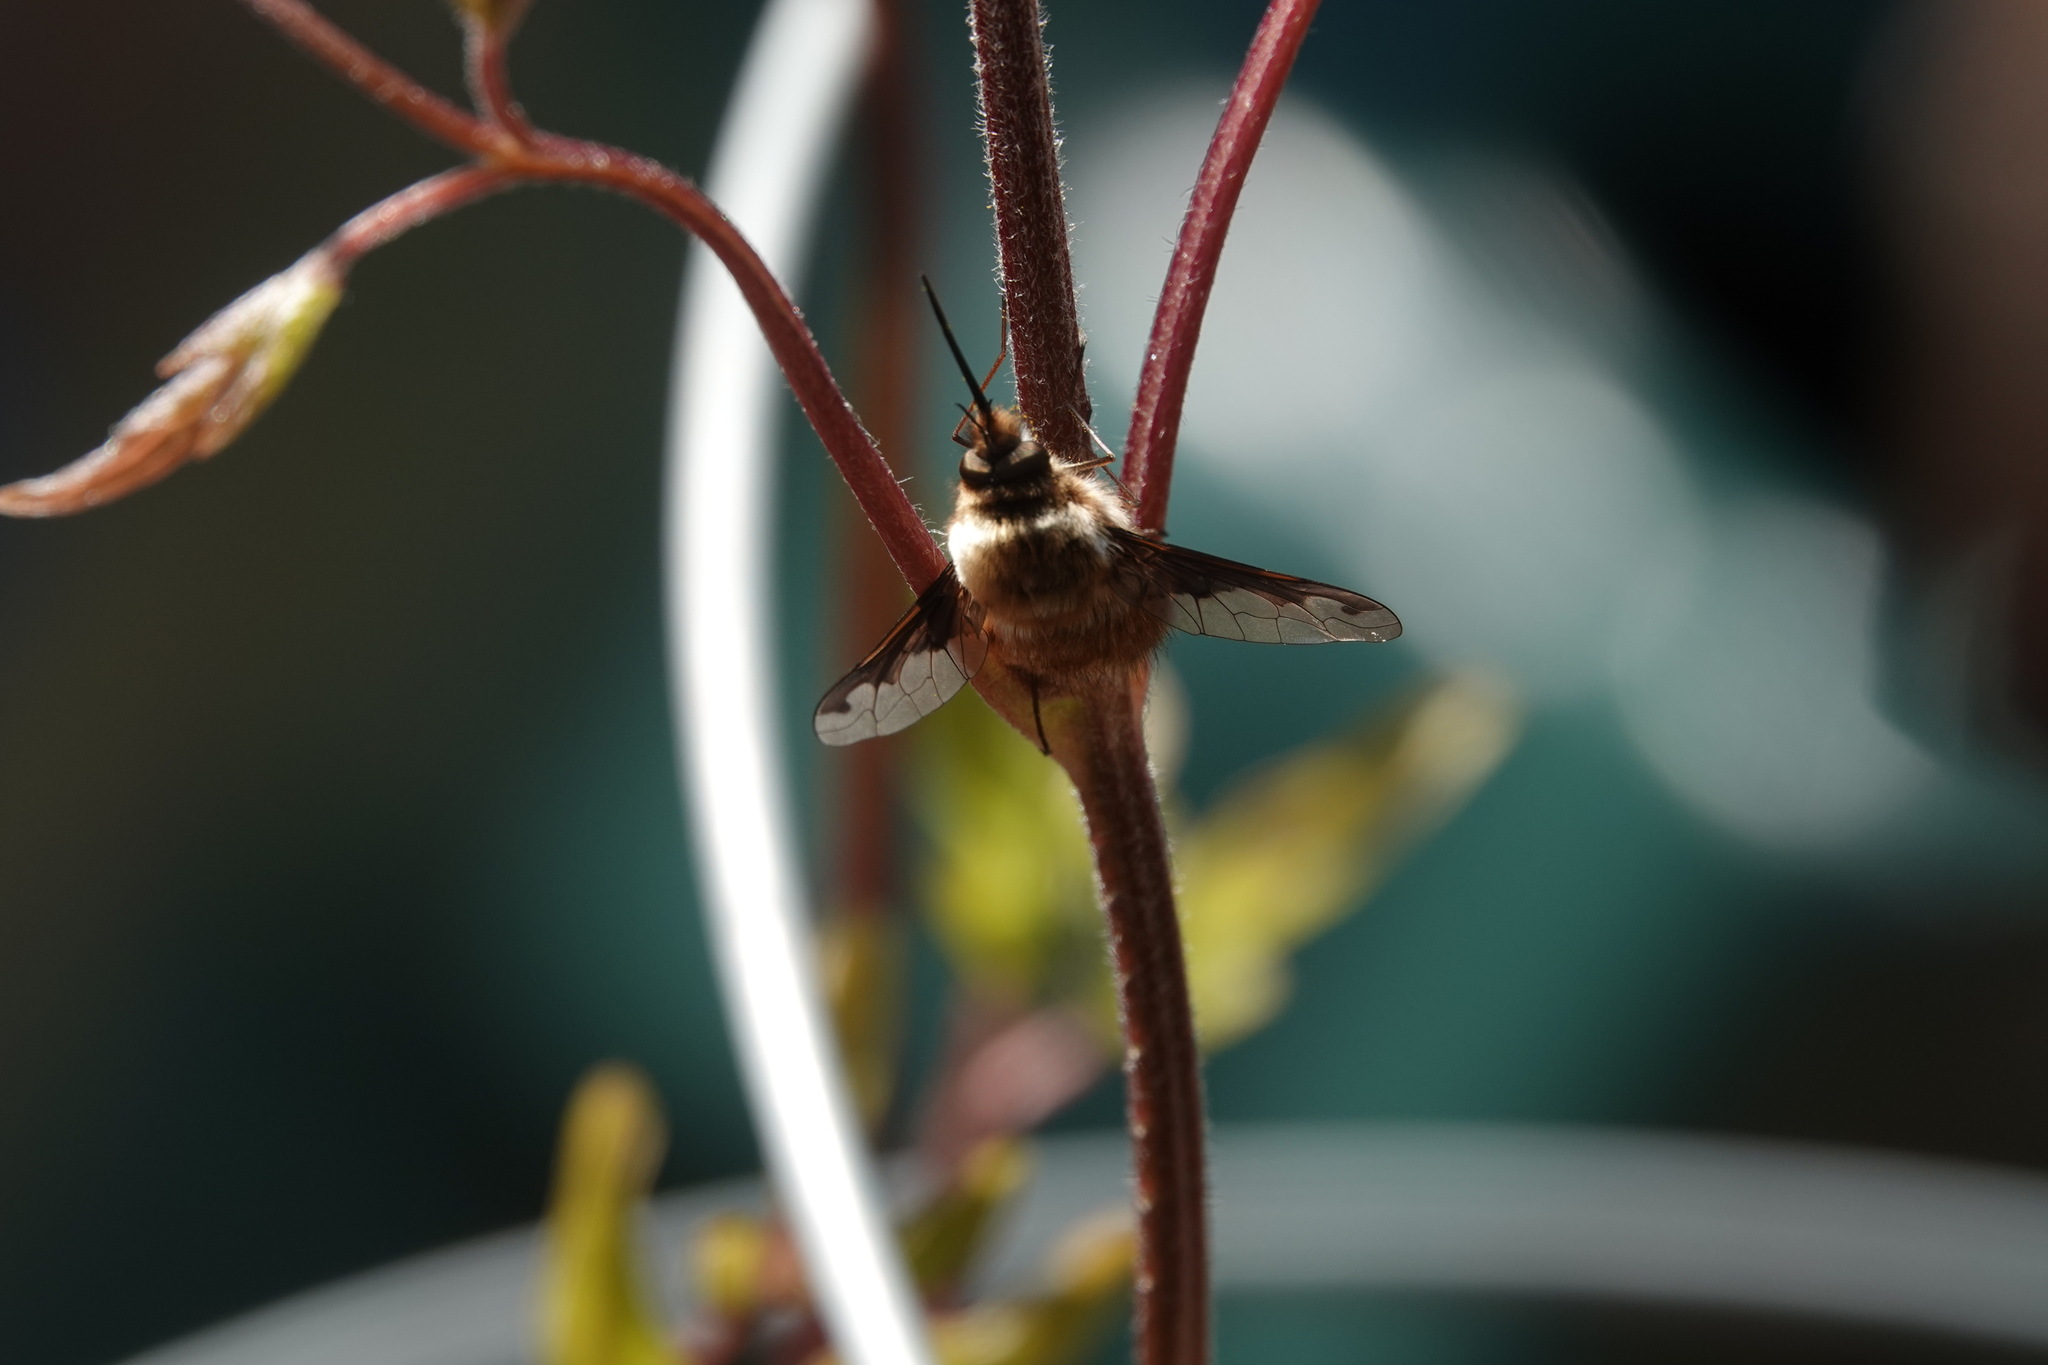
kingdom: Animalia
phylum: Arthropoda
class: Insecta
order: Diptera
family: Bombyliidae
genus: Bombylius
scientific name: Bombylius major
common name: Bee fly
